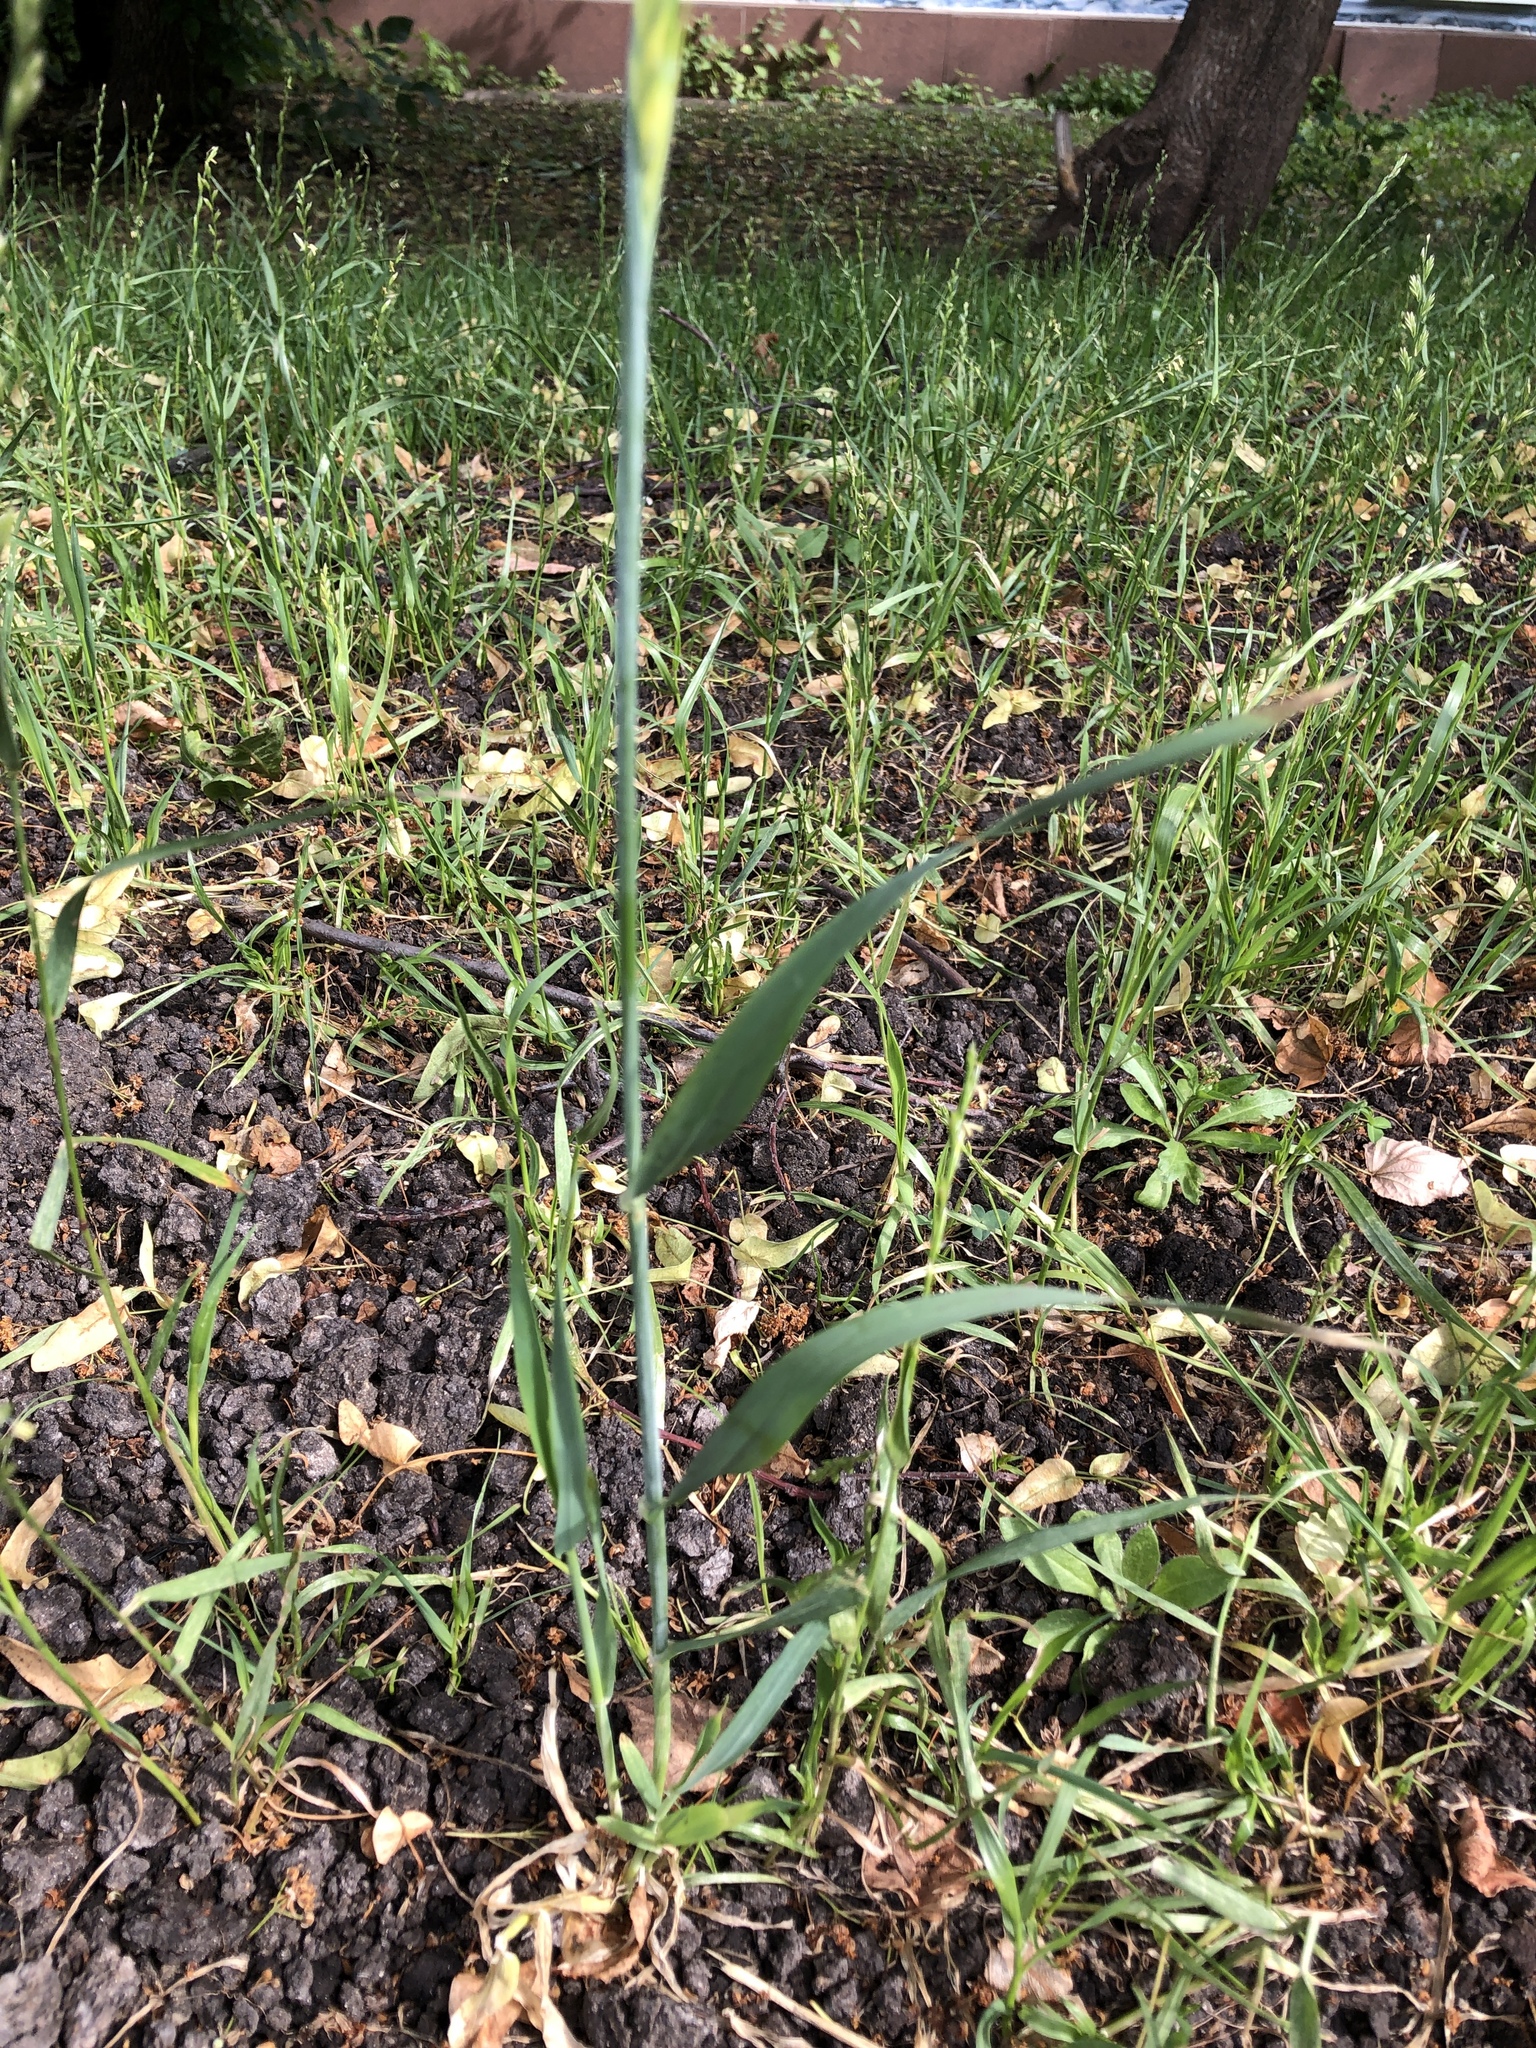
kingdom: Plantae
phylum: Tracheophyta
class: Liliopsida
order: Poales
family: Poaceae
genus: Secale
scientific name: Secale cereale
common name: Rye
